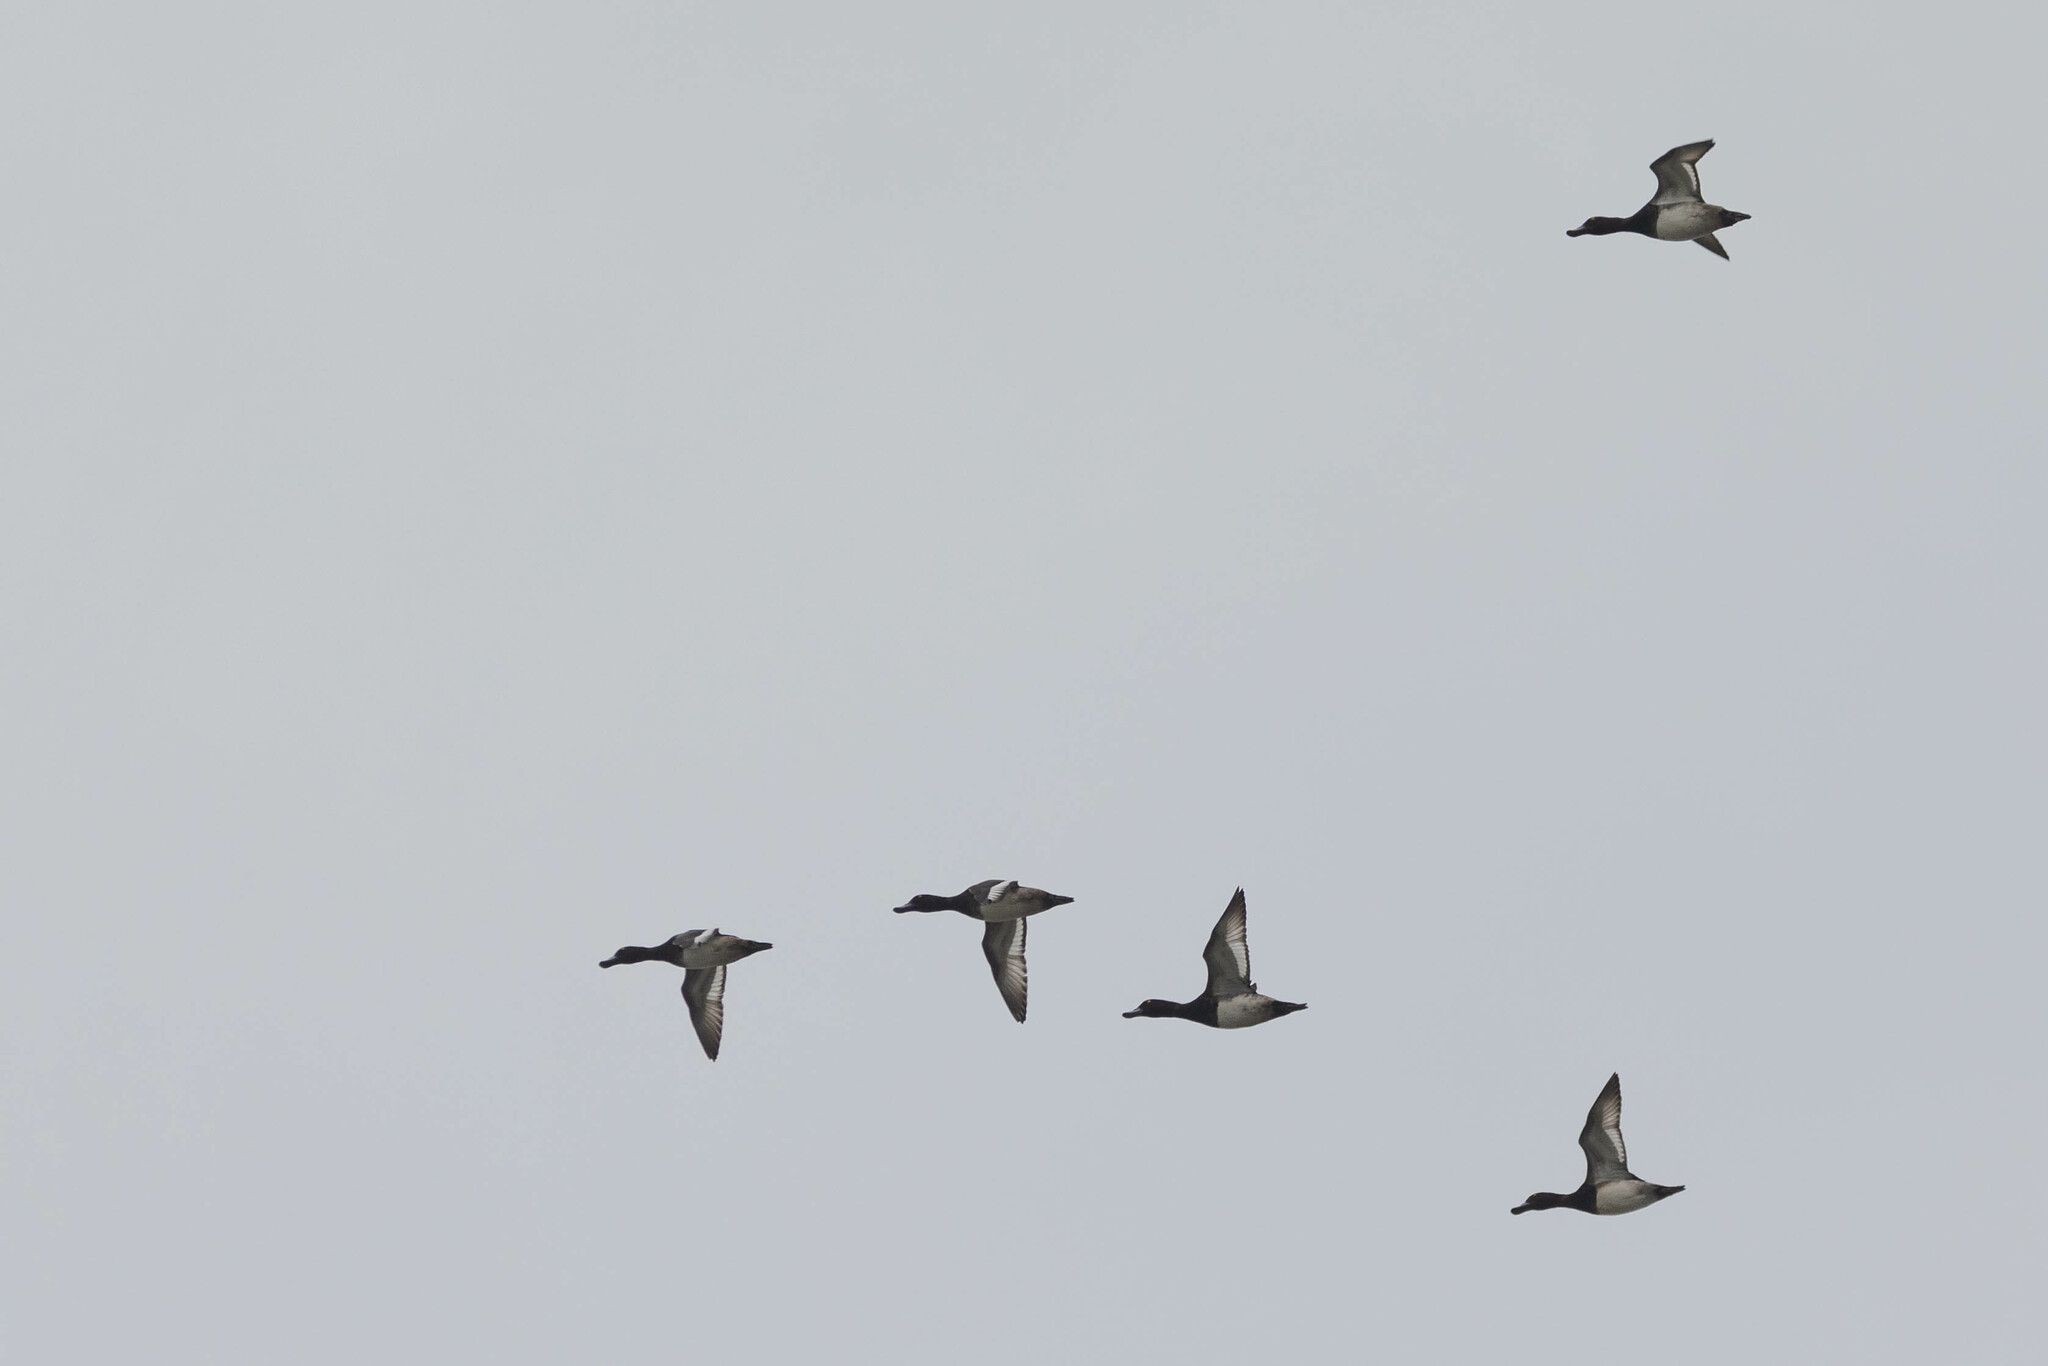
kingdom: Animalia
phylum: Chordata
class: Aves
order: Anseriformes
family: Anatidae
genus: Aythya
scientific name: Aythya marila
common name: Greater scaup
